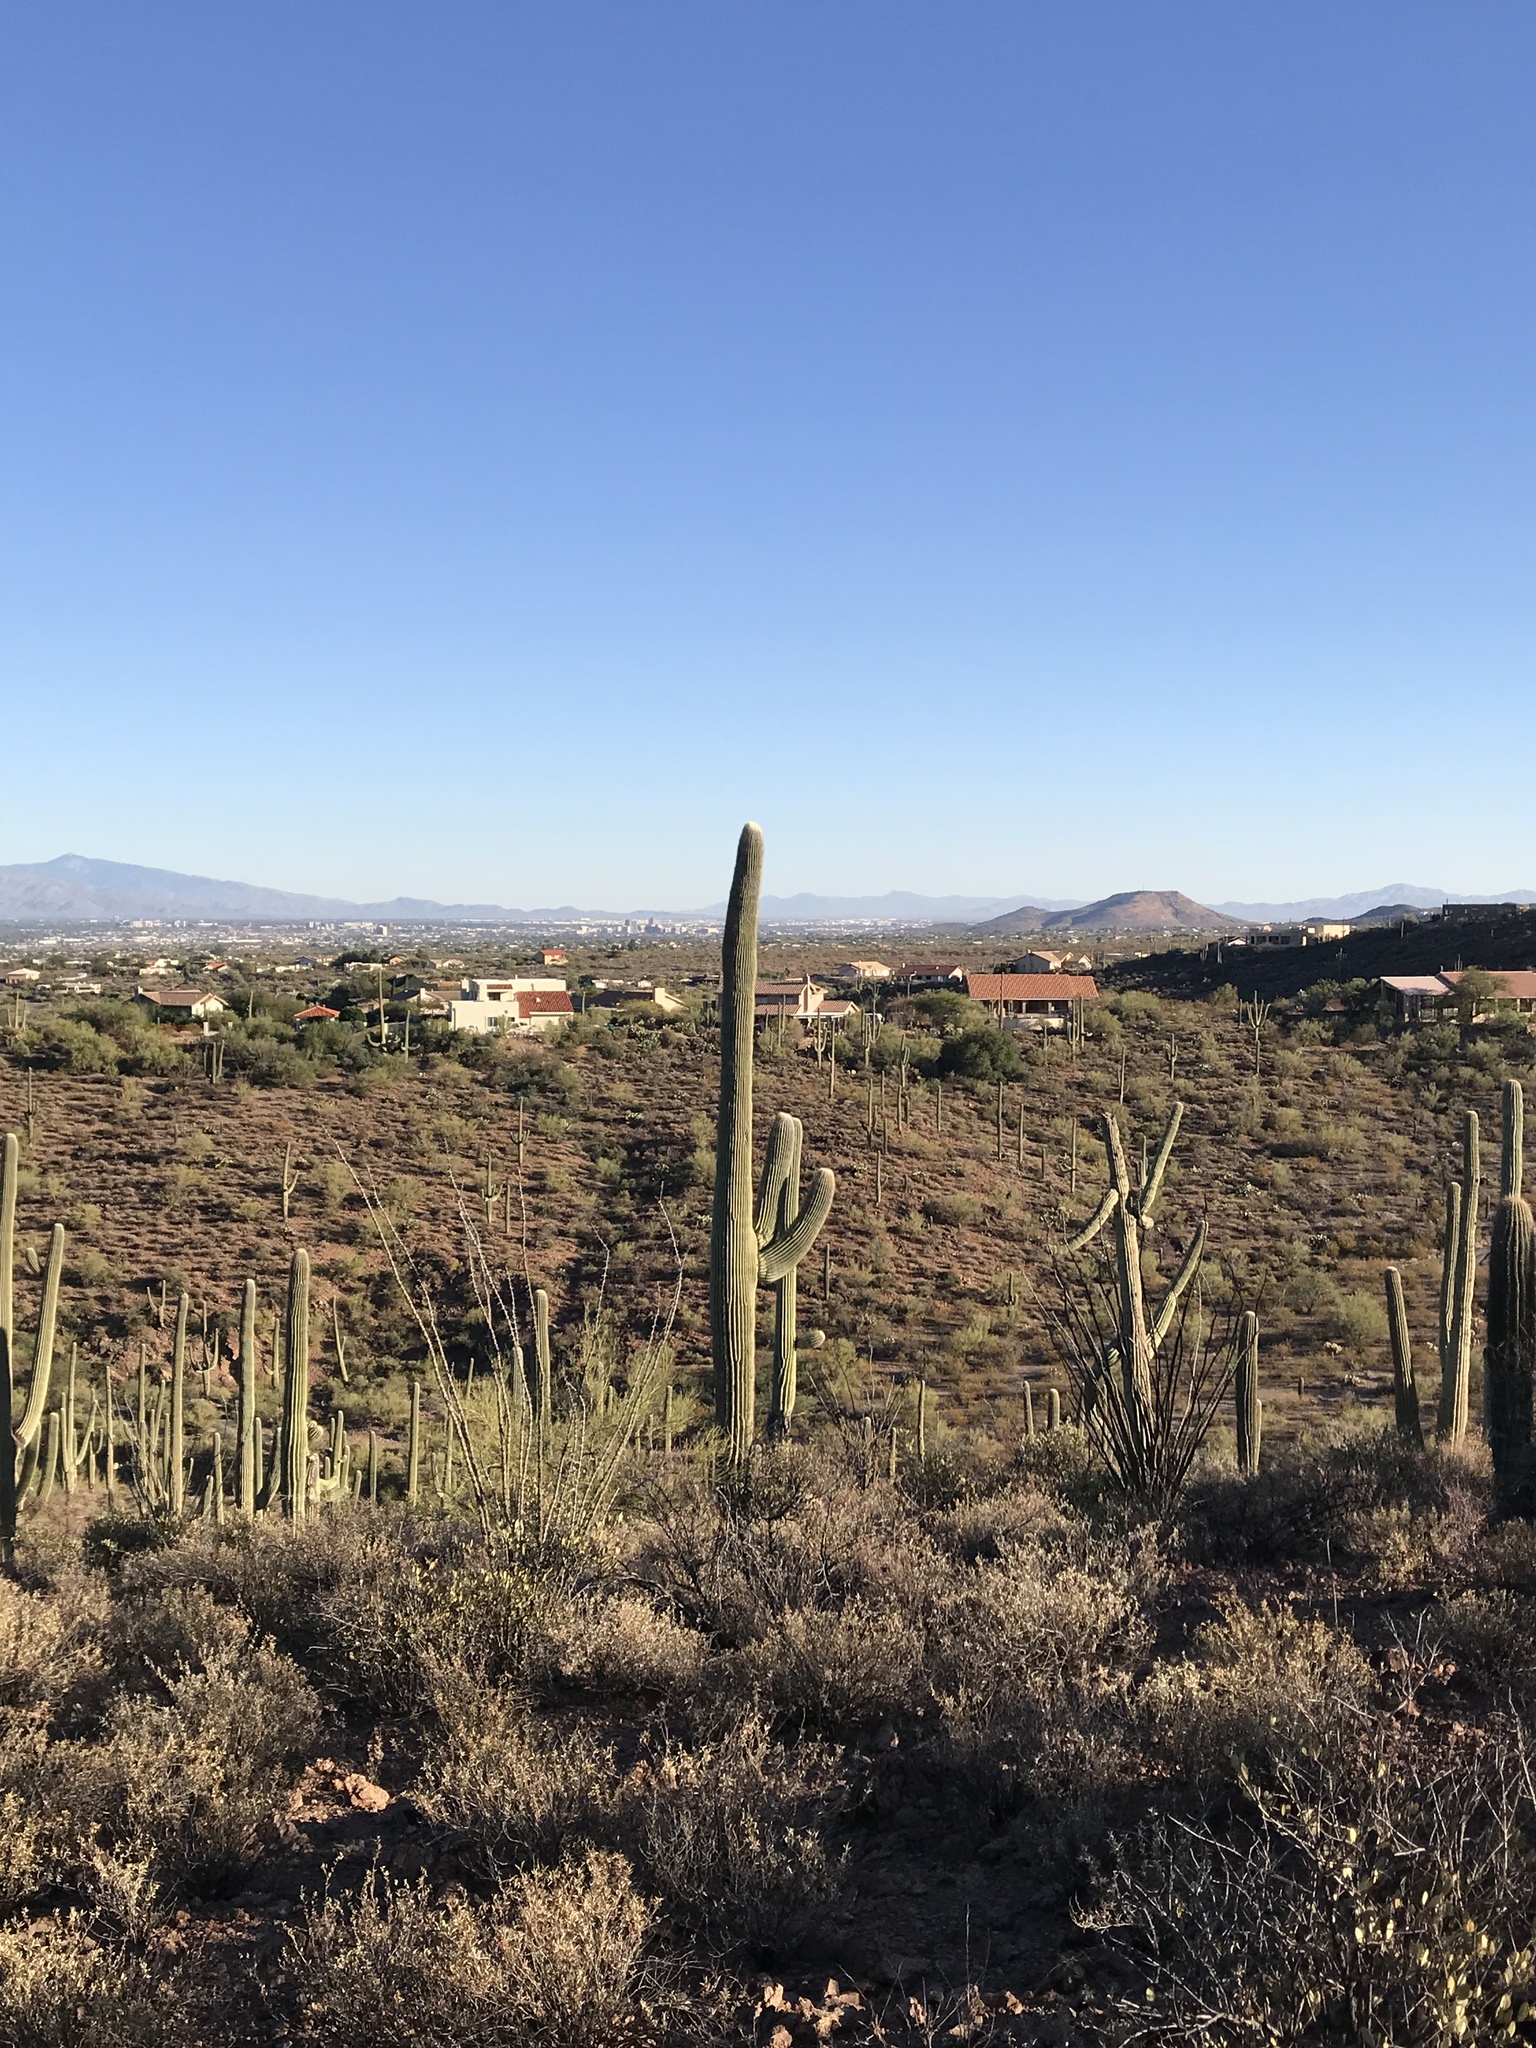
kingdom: Plantae
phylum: Tracheophyta
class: Magnoliopsida
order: Caryophyllales
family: Cactaceae
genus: Carnegiea
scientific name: Carnegiea gigantea
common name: Saguaro
